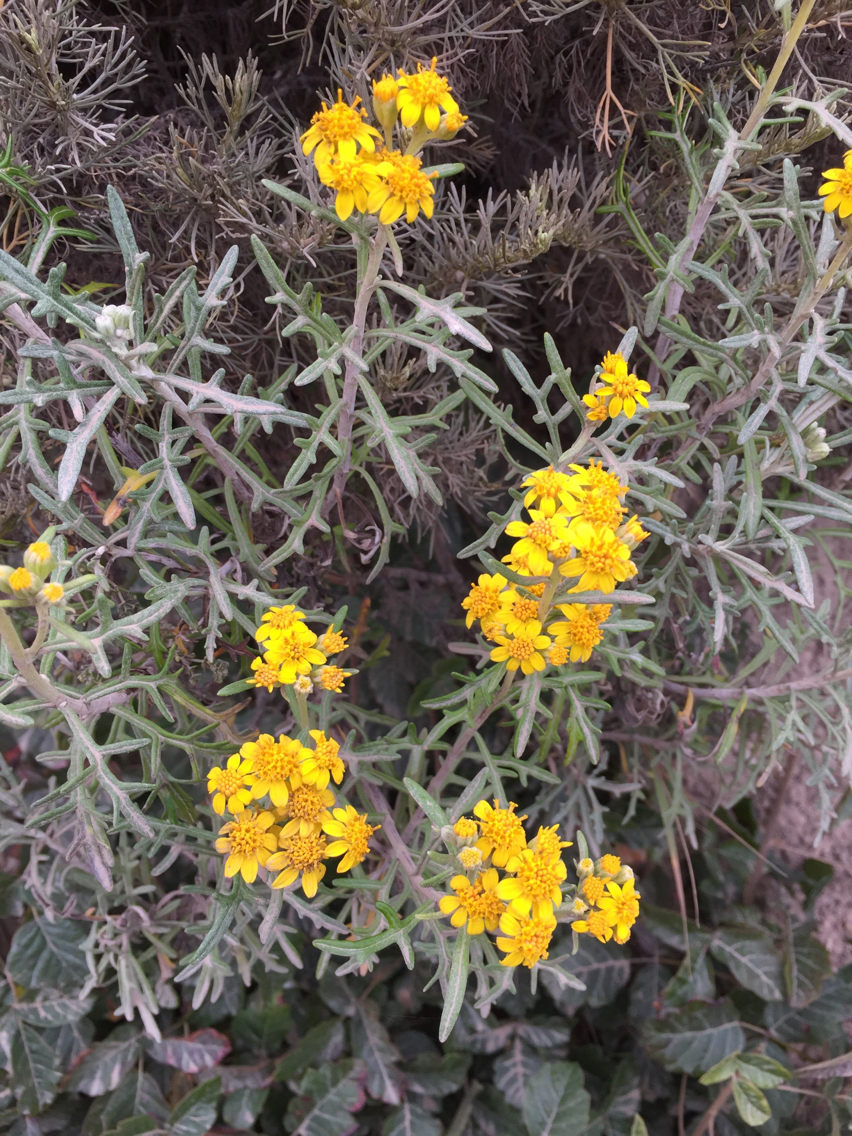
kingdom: Plantae
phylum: Tracheophyta
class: Magnoliopsida
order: Asterales
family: Asteraceae
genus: Eriophyllum
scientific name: Eriophyllum staechadifolium
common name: Lizardtail
